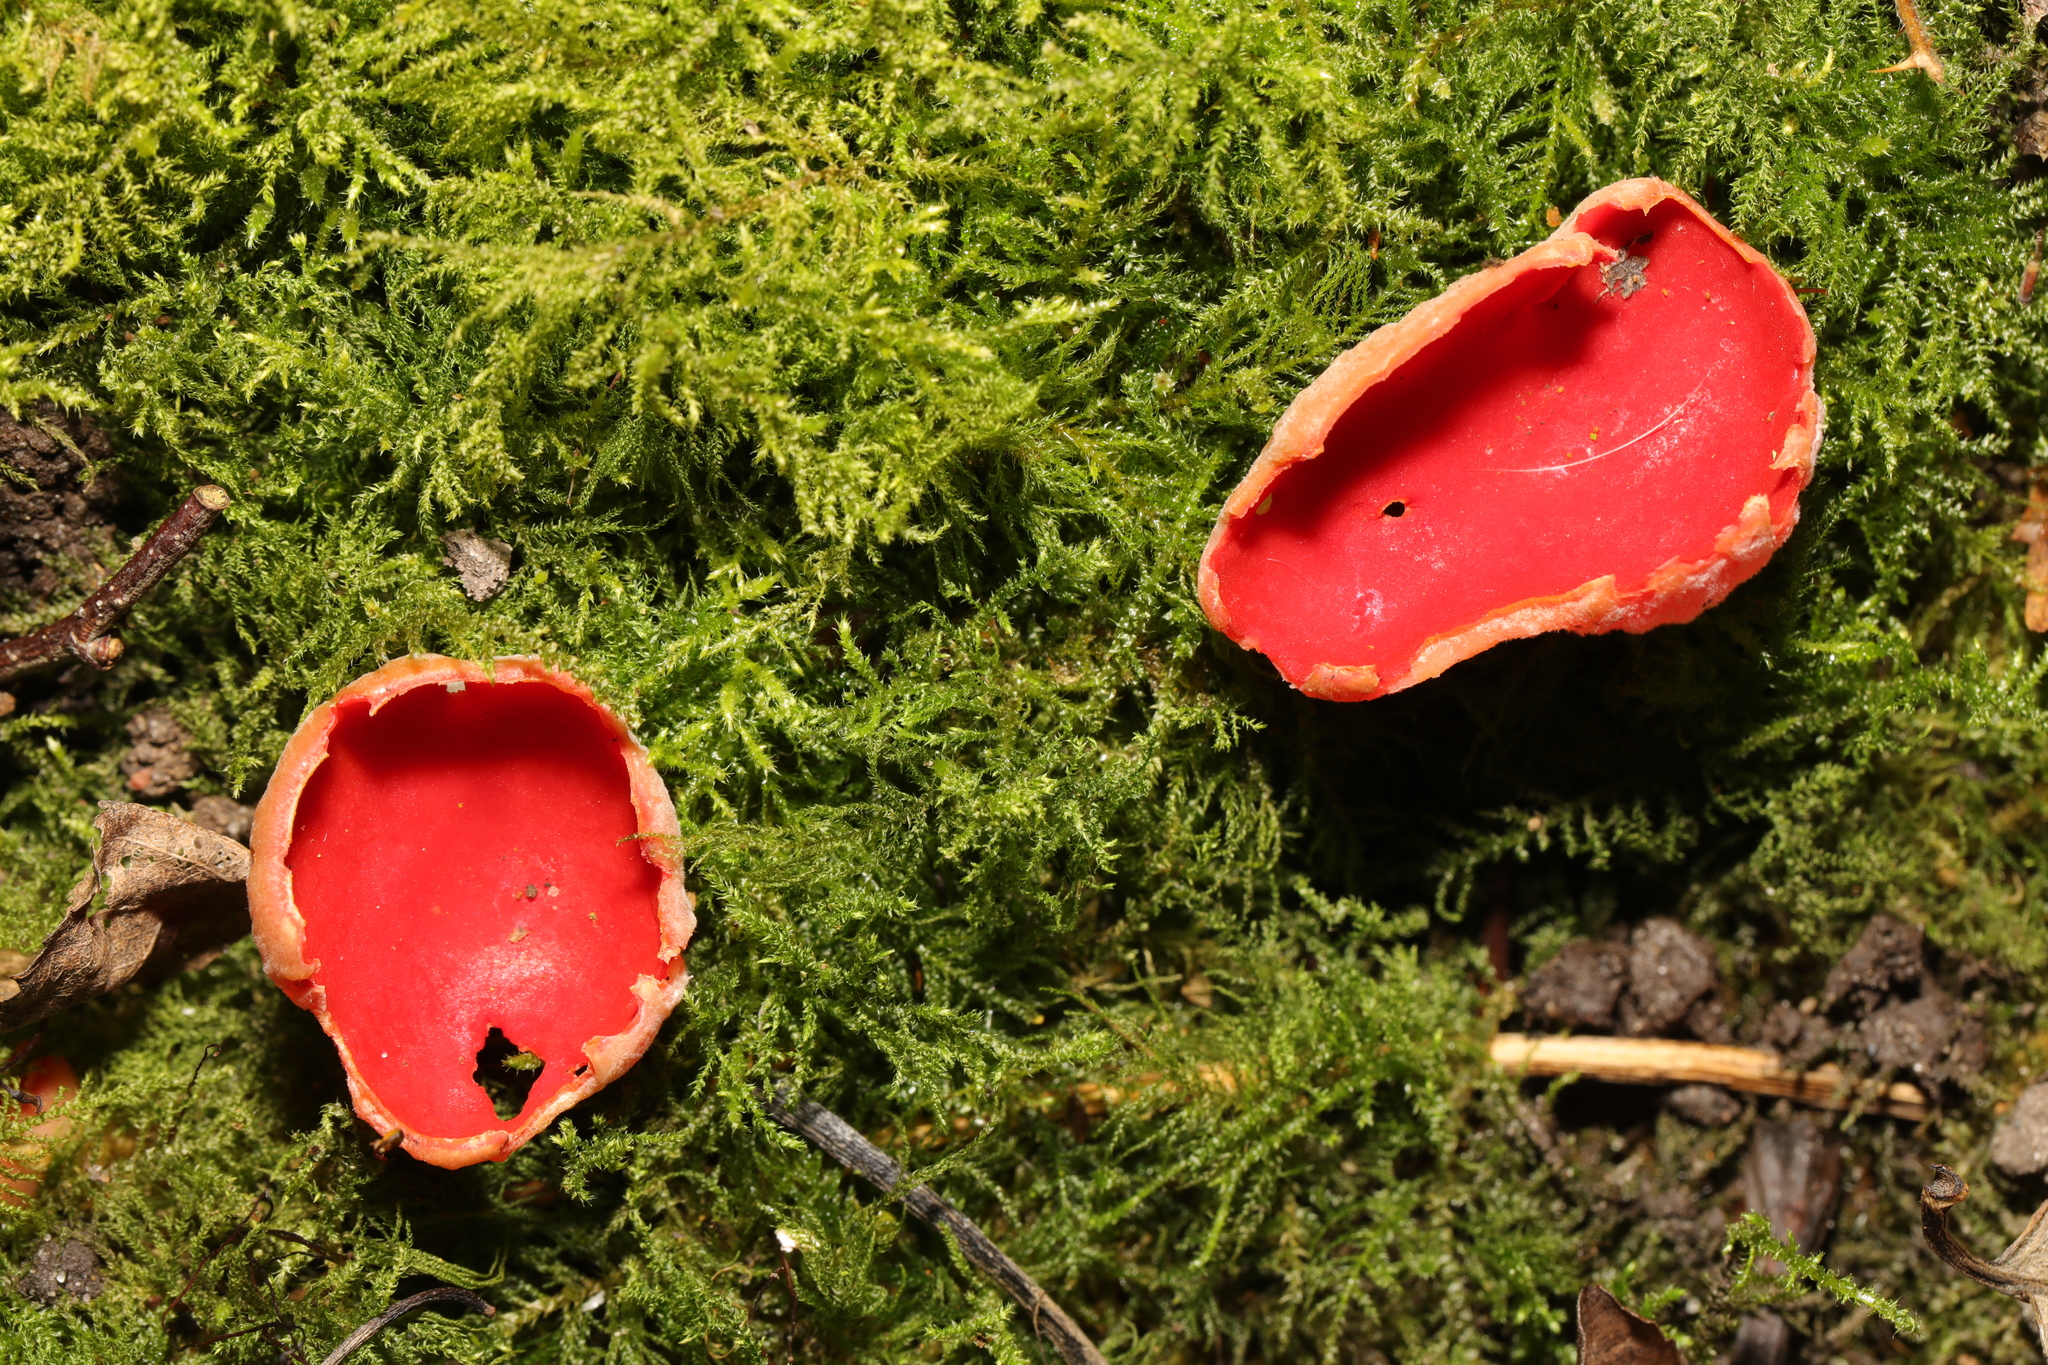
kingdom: Fungi
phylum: Ascomycota
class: Pezizomycetes
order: Pezizales
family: Sarcoscyphaceae
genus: Sarcoscypha
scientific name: Sarcoscypha
